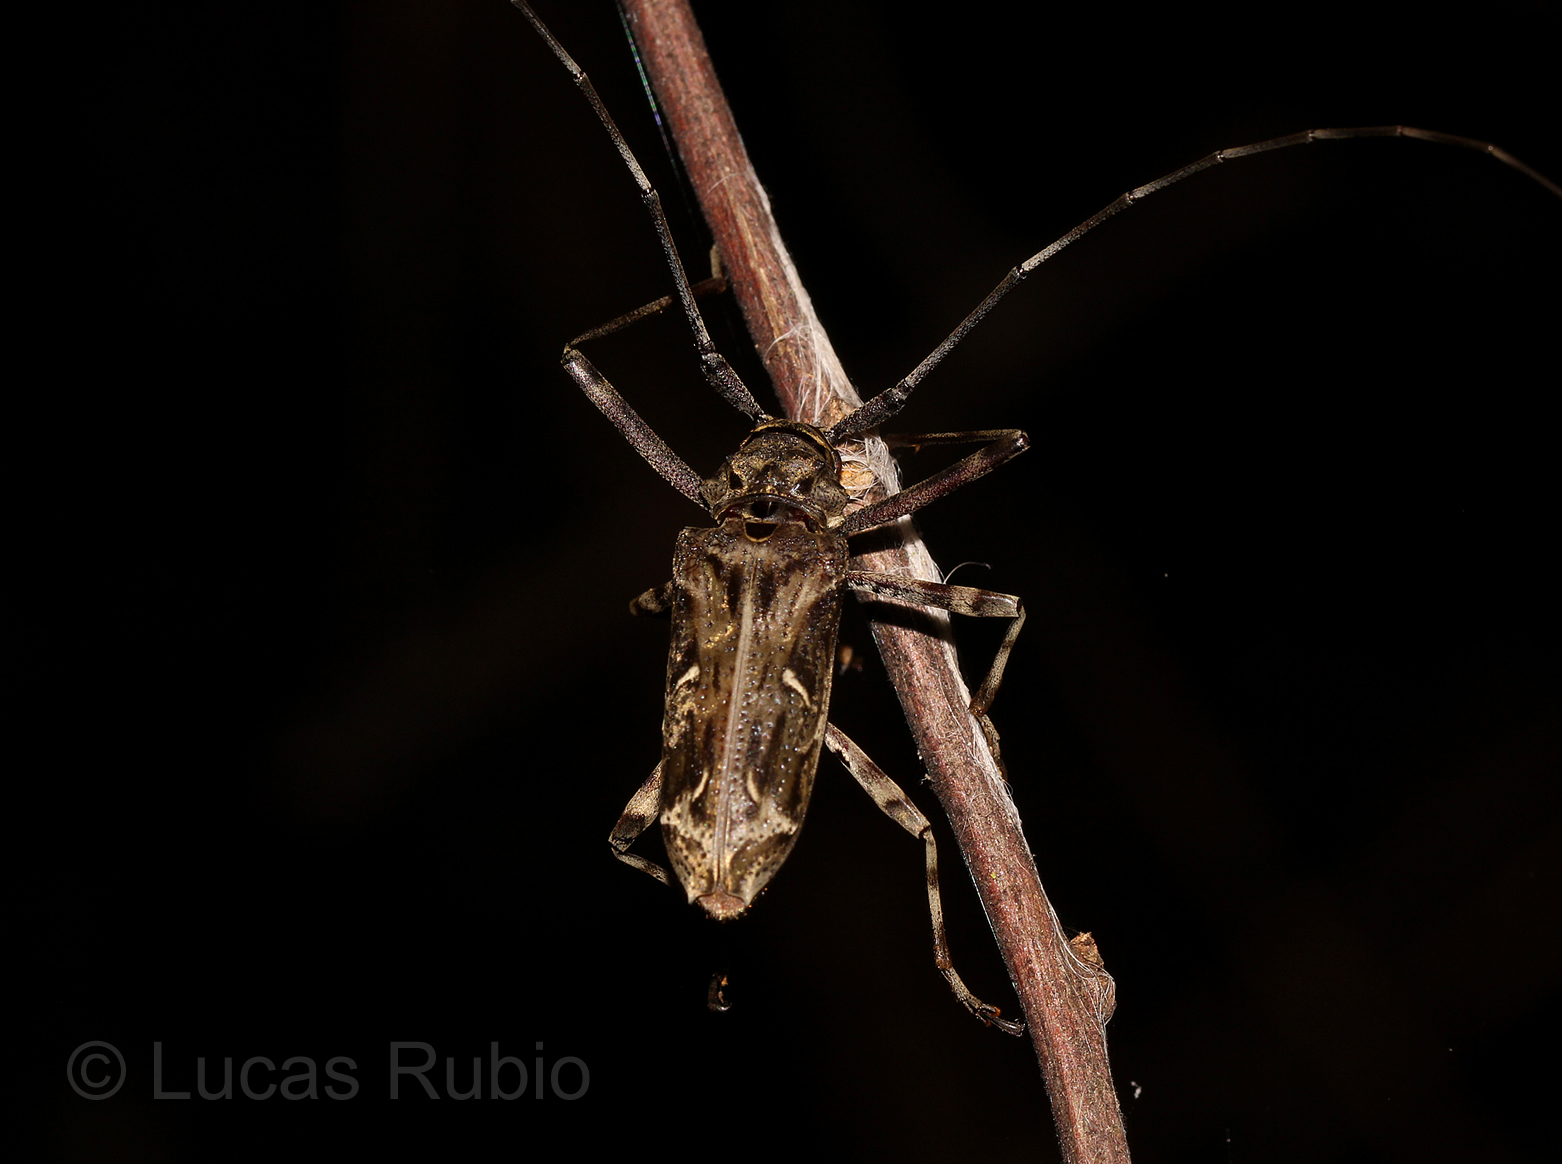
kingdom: Animalia
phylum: Arthropoda
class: Insecta
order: Coleoptera
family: Cerambycidae
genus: Macropophora
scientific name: Macropophora accentifer
